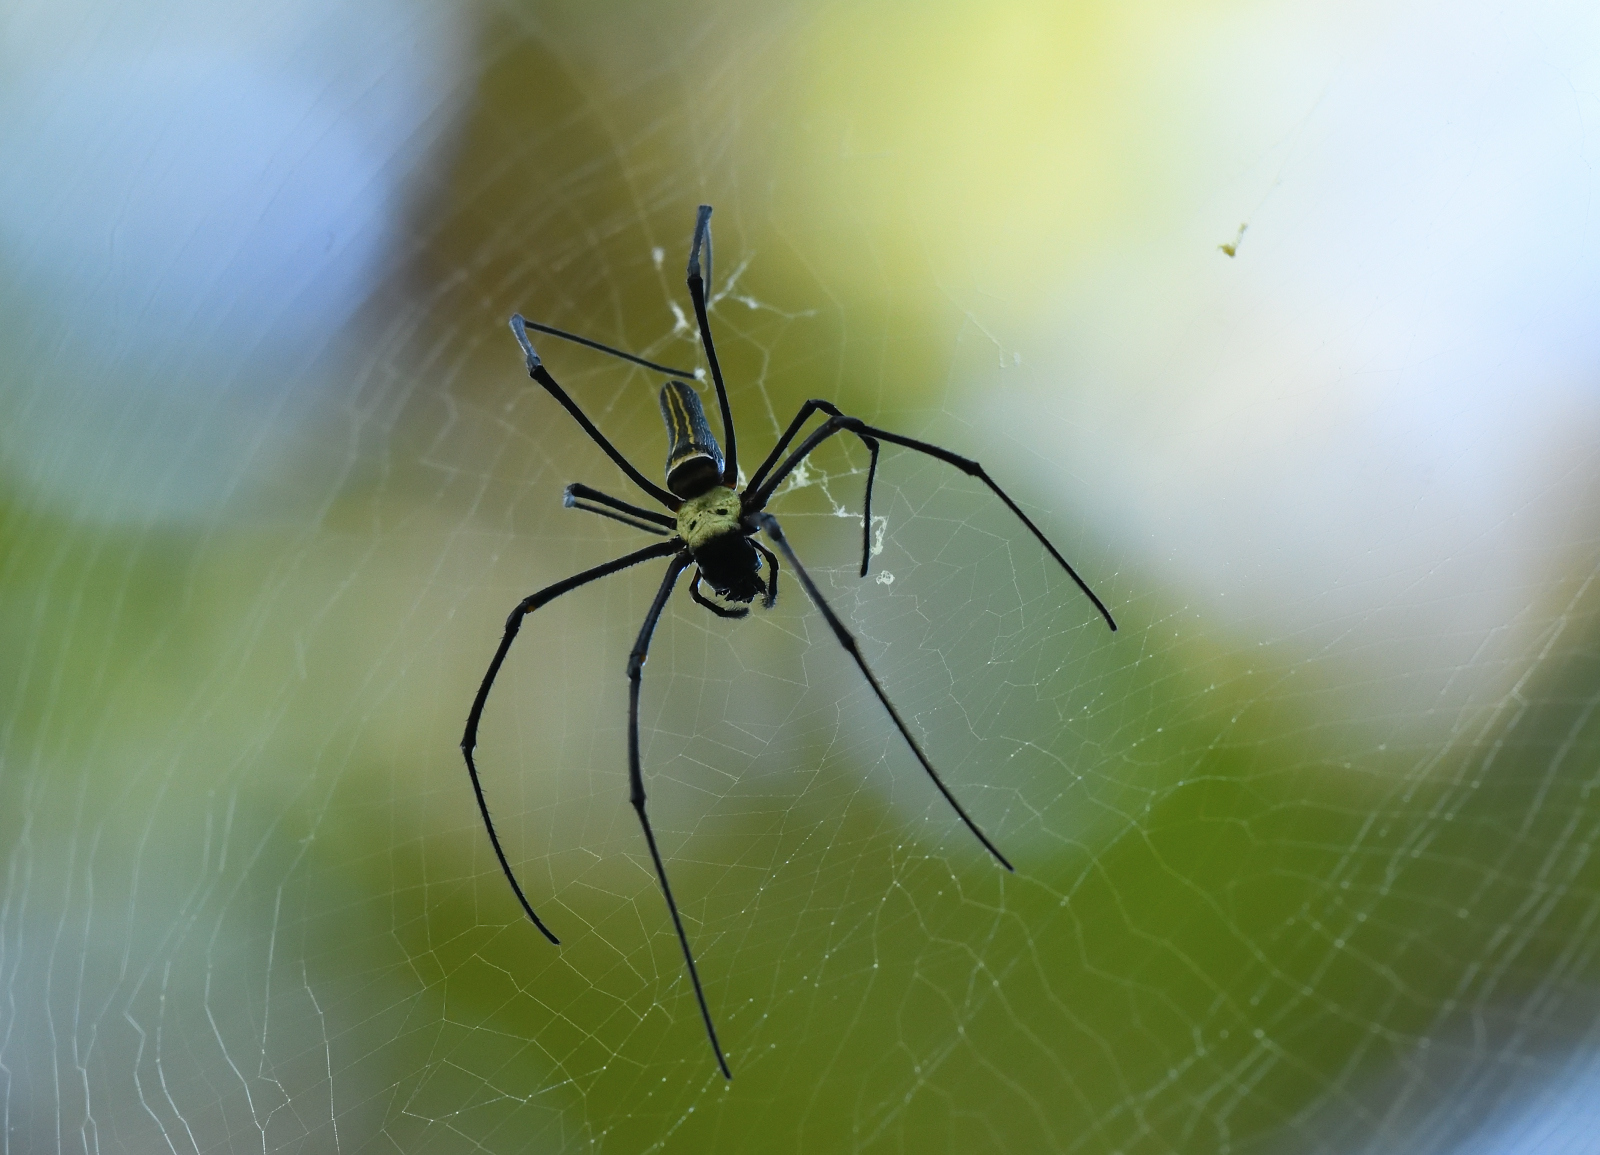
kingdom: Animalia
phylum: Arthropoda
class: Arachnida
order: Araneae
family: Araneidae
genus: Nephila
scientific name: Nephila pilipes
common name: Giant golden orb weaver
